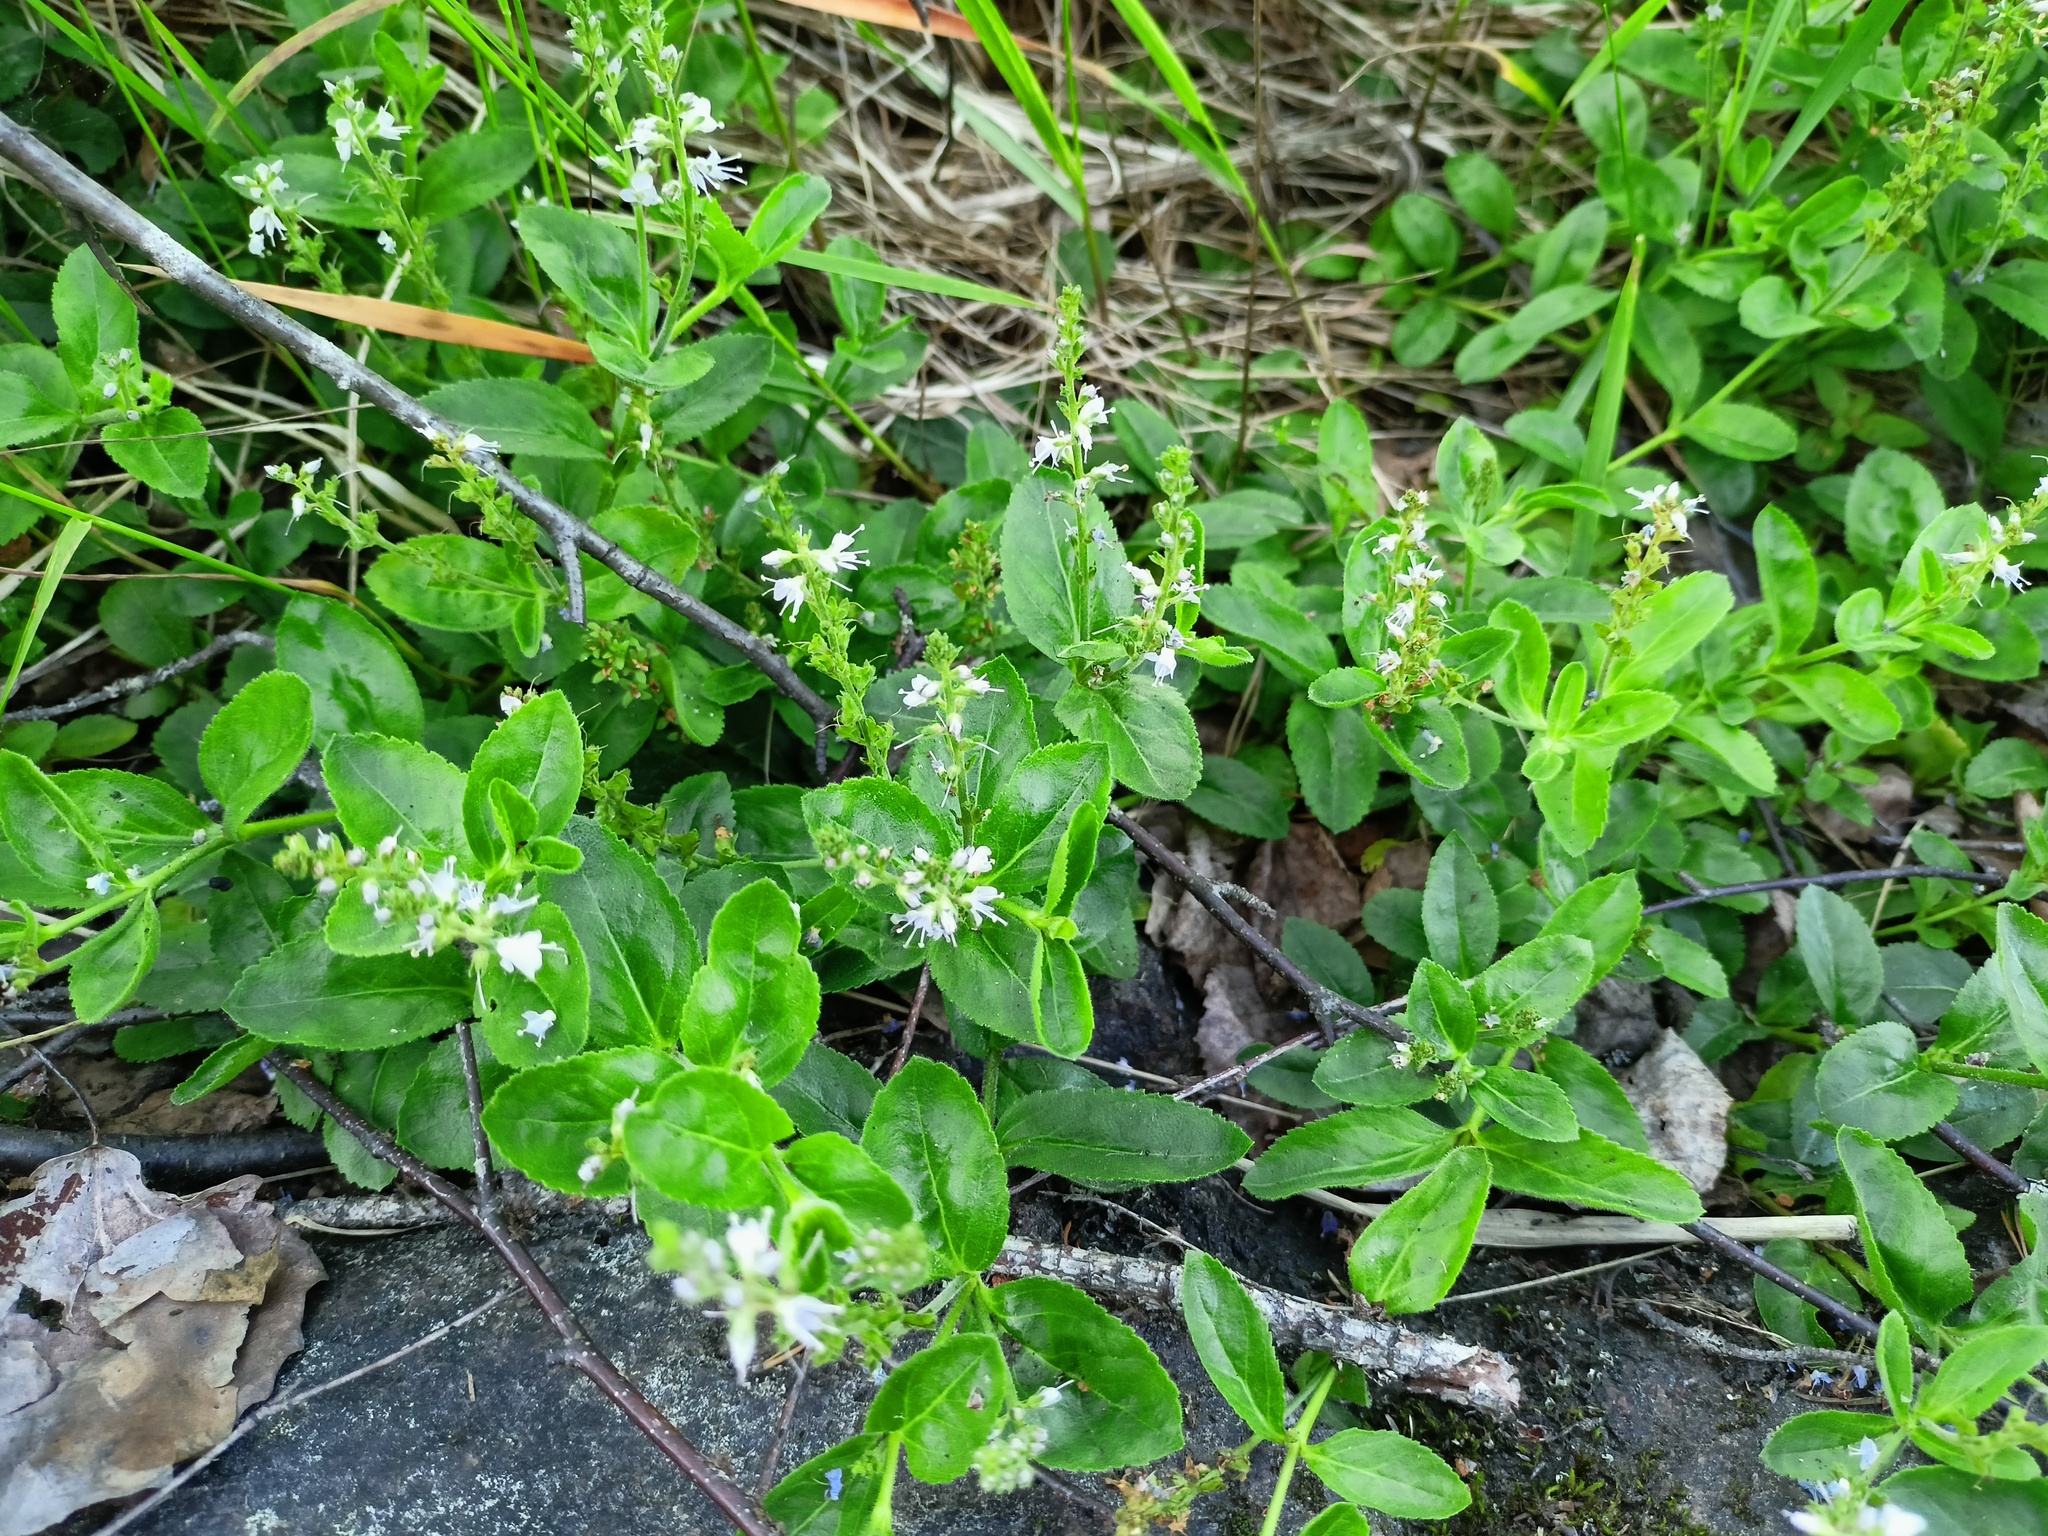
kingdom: Plantae
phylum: Tracheophyta
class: Magnoliopsida
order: Lamiales
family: Plantaginaceae
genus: Veronica
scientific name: Veronica officinalis
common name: Common speedwell
